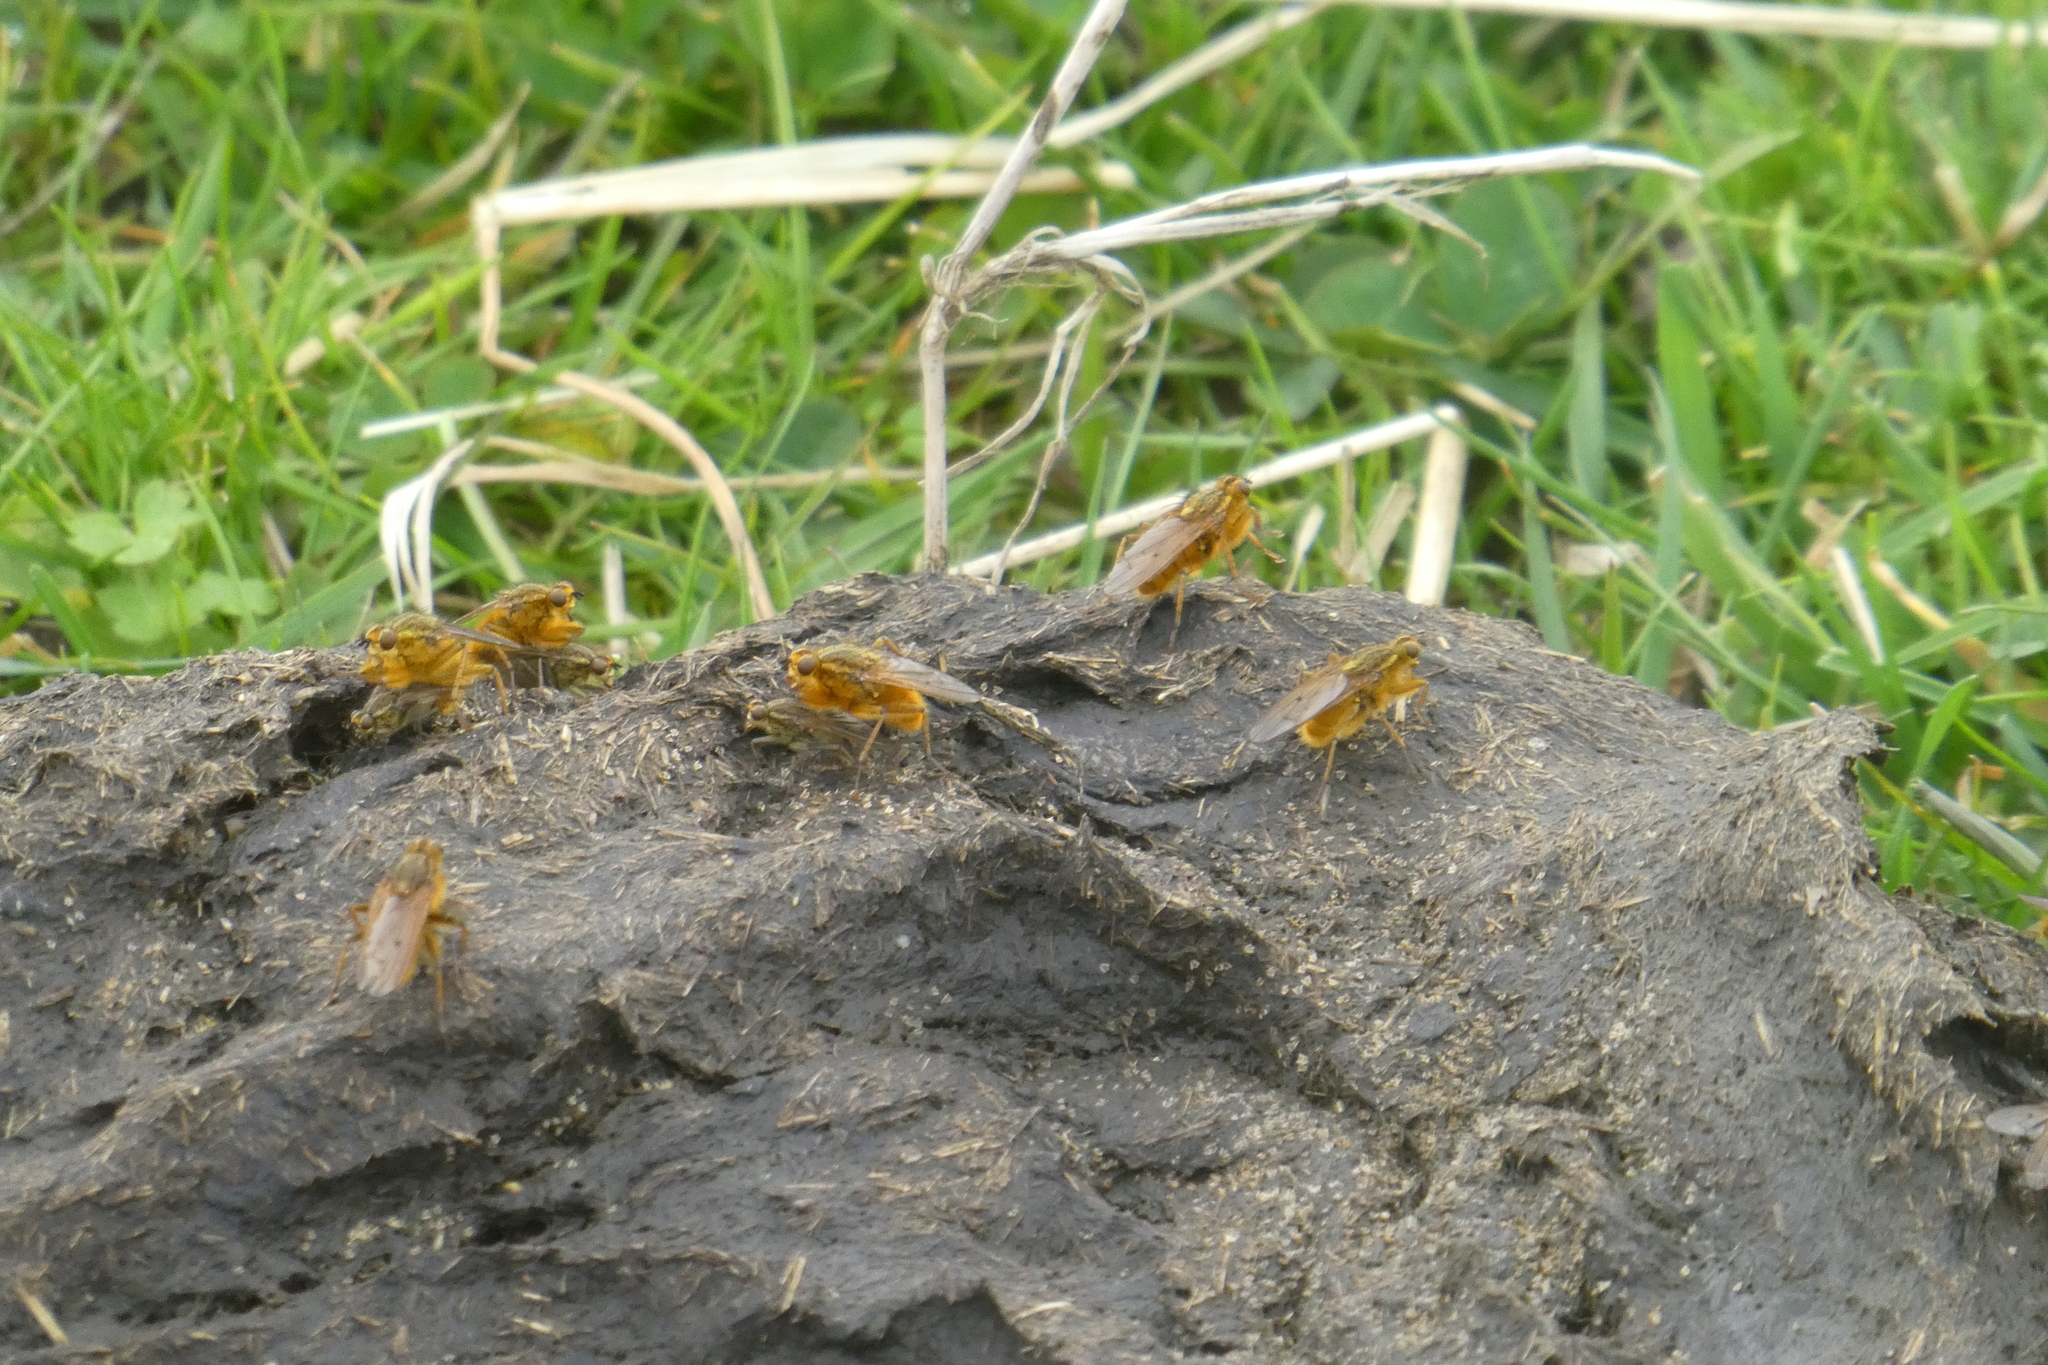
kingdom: Animalia
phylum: Arthropoda
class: Insecta
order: Diptera
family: Scathophagidae
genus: Scathophaga
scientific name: Scathophaga stercoraria
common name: Yellow dung fly
